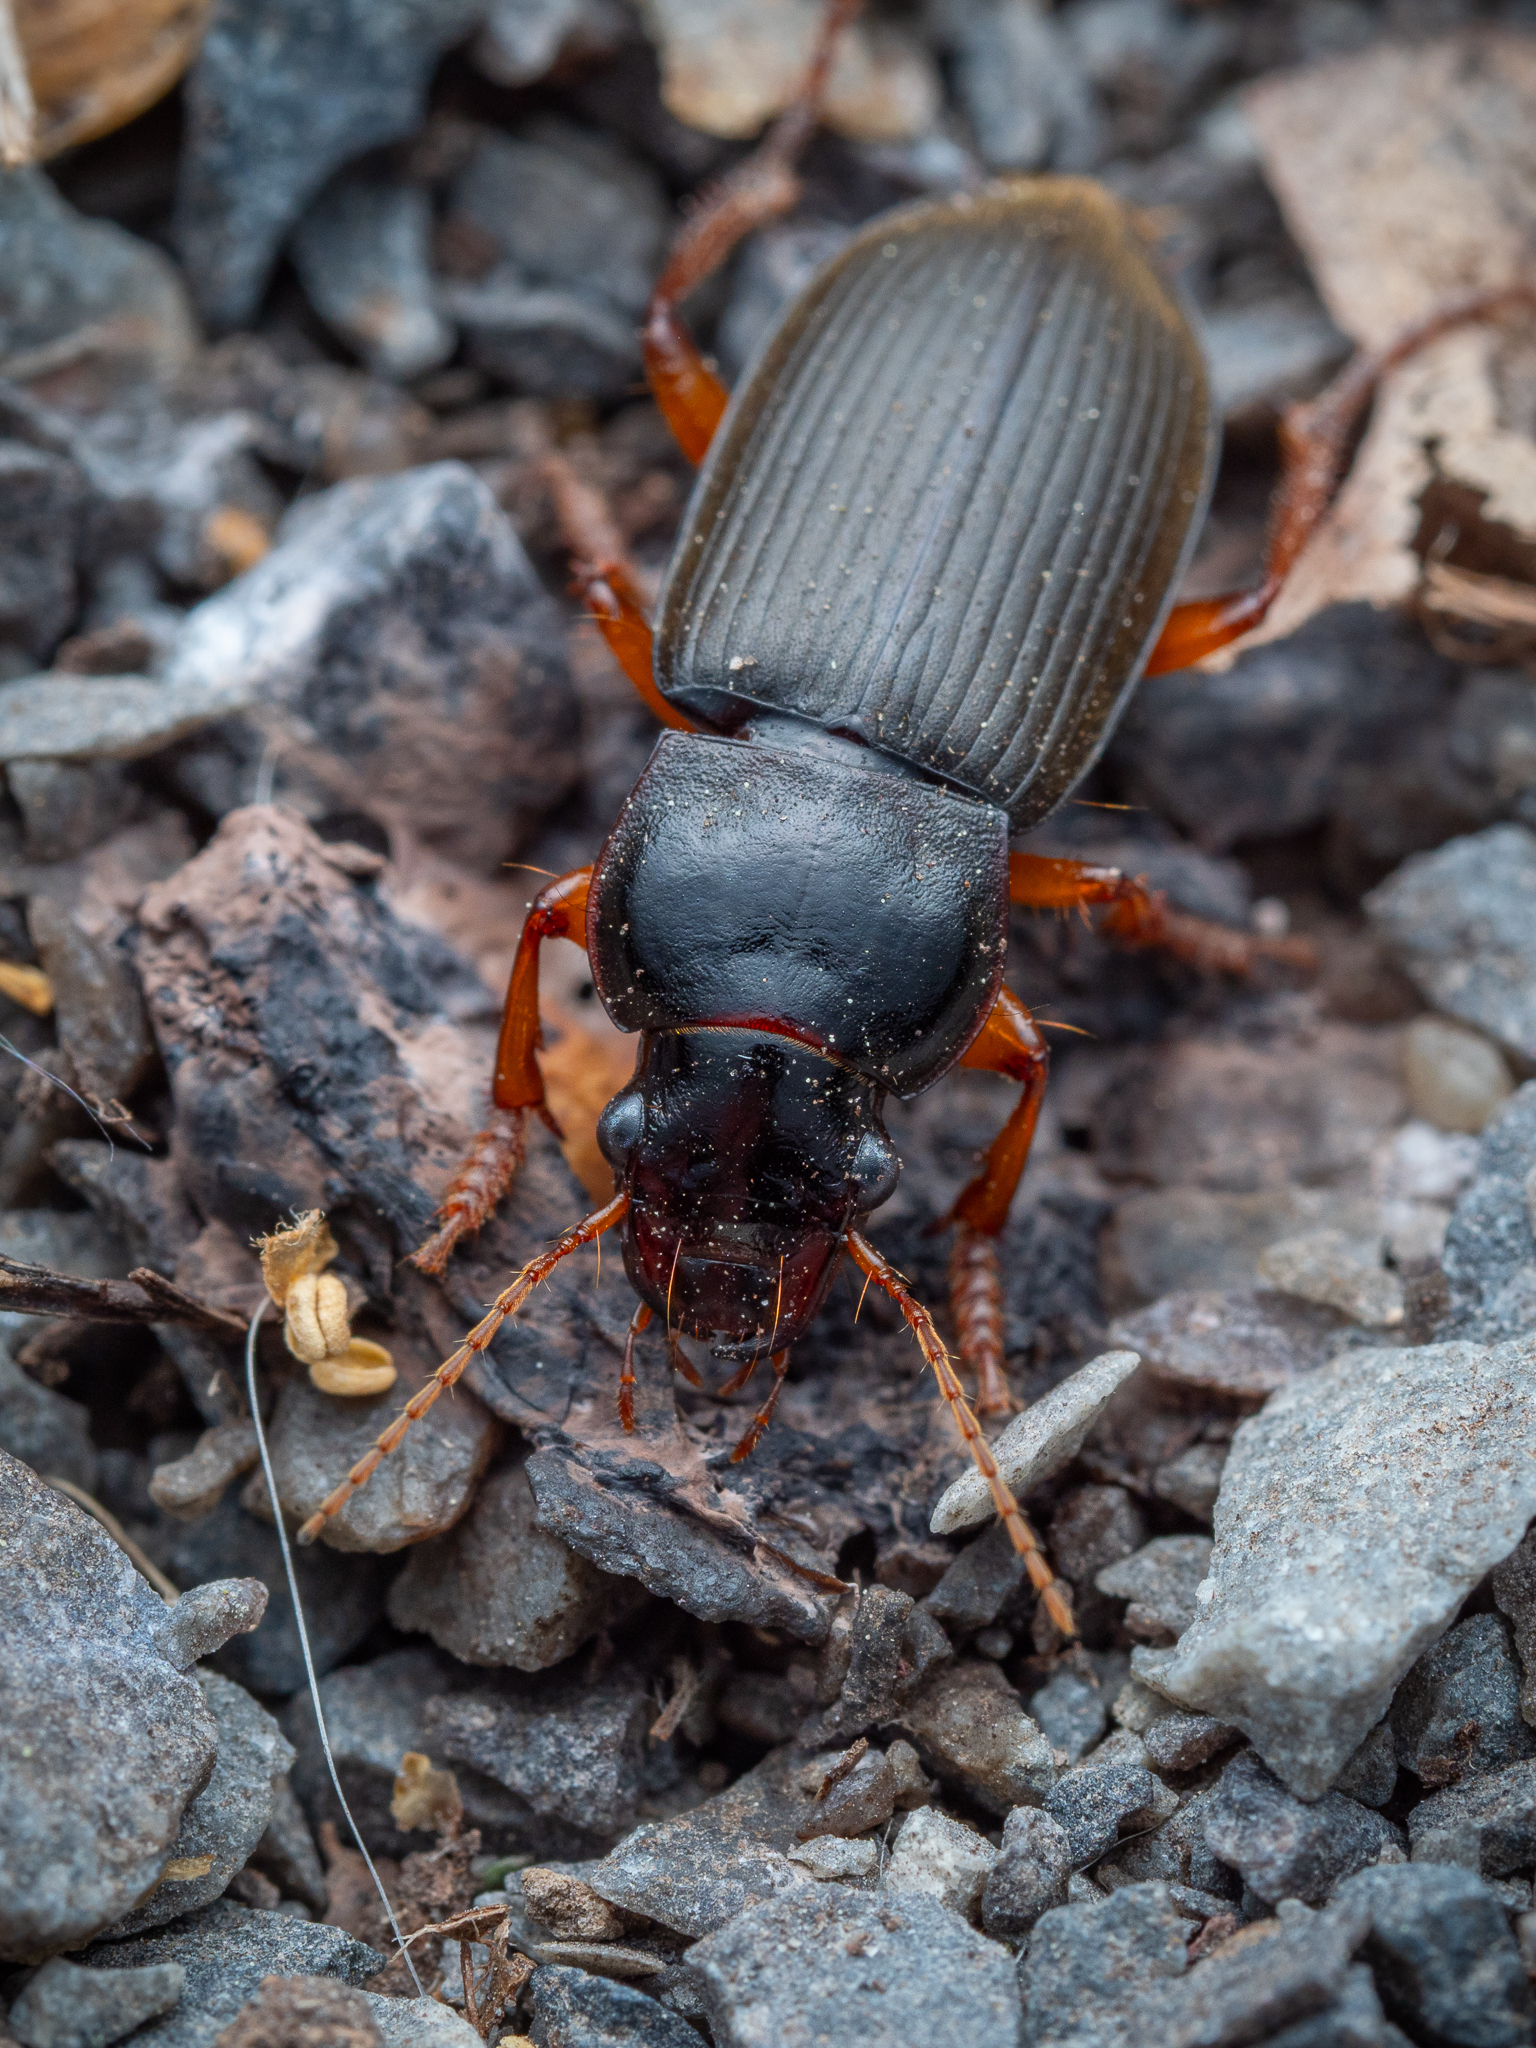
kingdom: Animalia
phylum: Arthropoda
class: Insecta
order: Coleoptera
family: Carabidae
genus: Harpalus
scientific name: Harpalus rufipes
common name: Strawberry harp ground beetle
